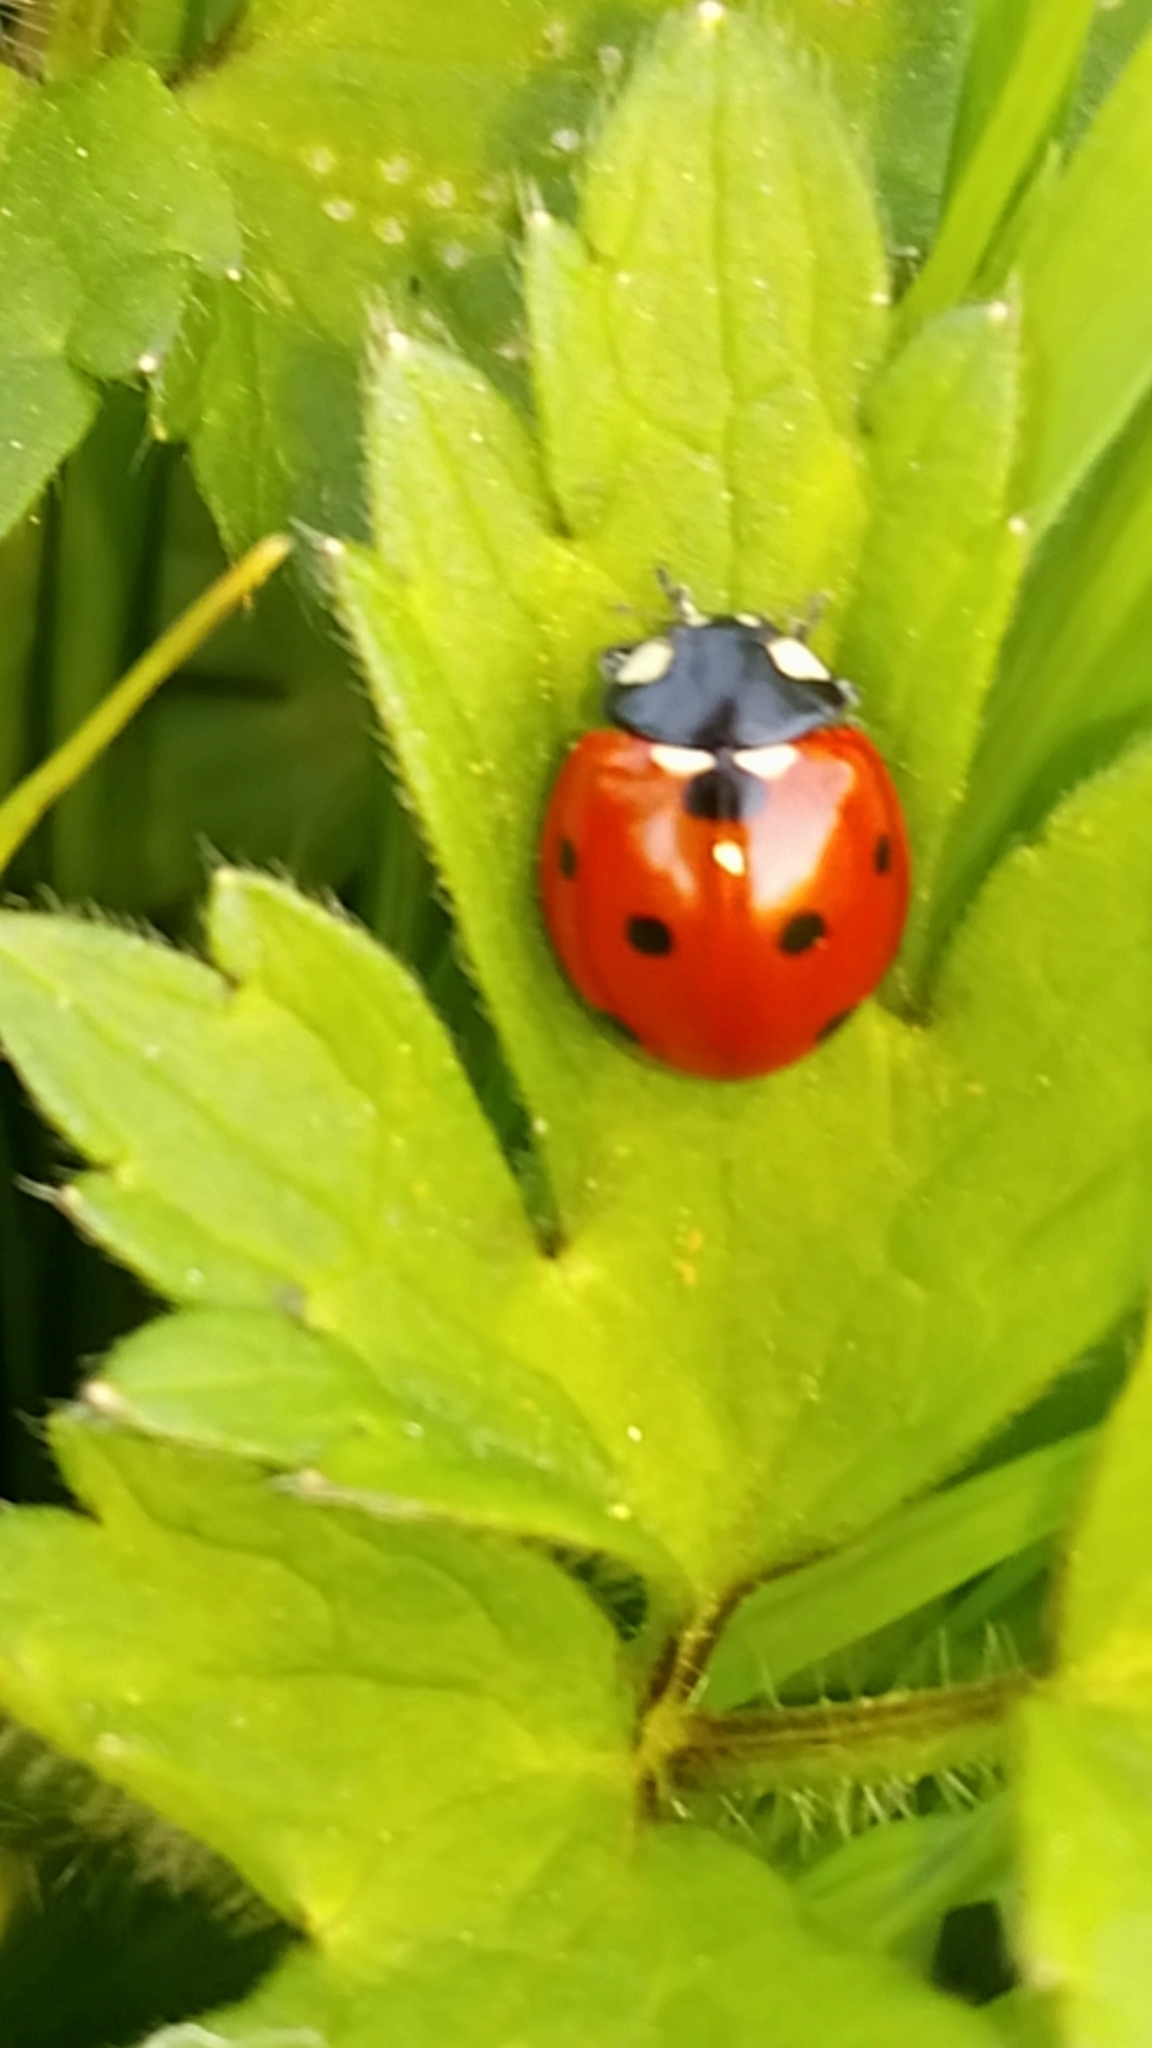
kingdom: Animalia
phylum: Arthropoda
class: Insecta
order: Coleoptera
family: Coccinellidae
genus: Coccinella
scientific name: Coccinella septempunctata
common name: Sevenspotted lady beetle
